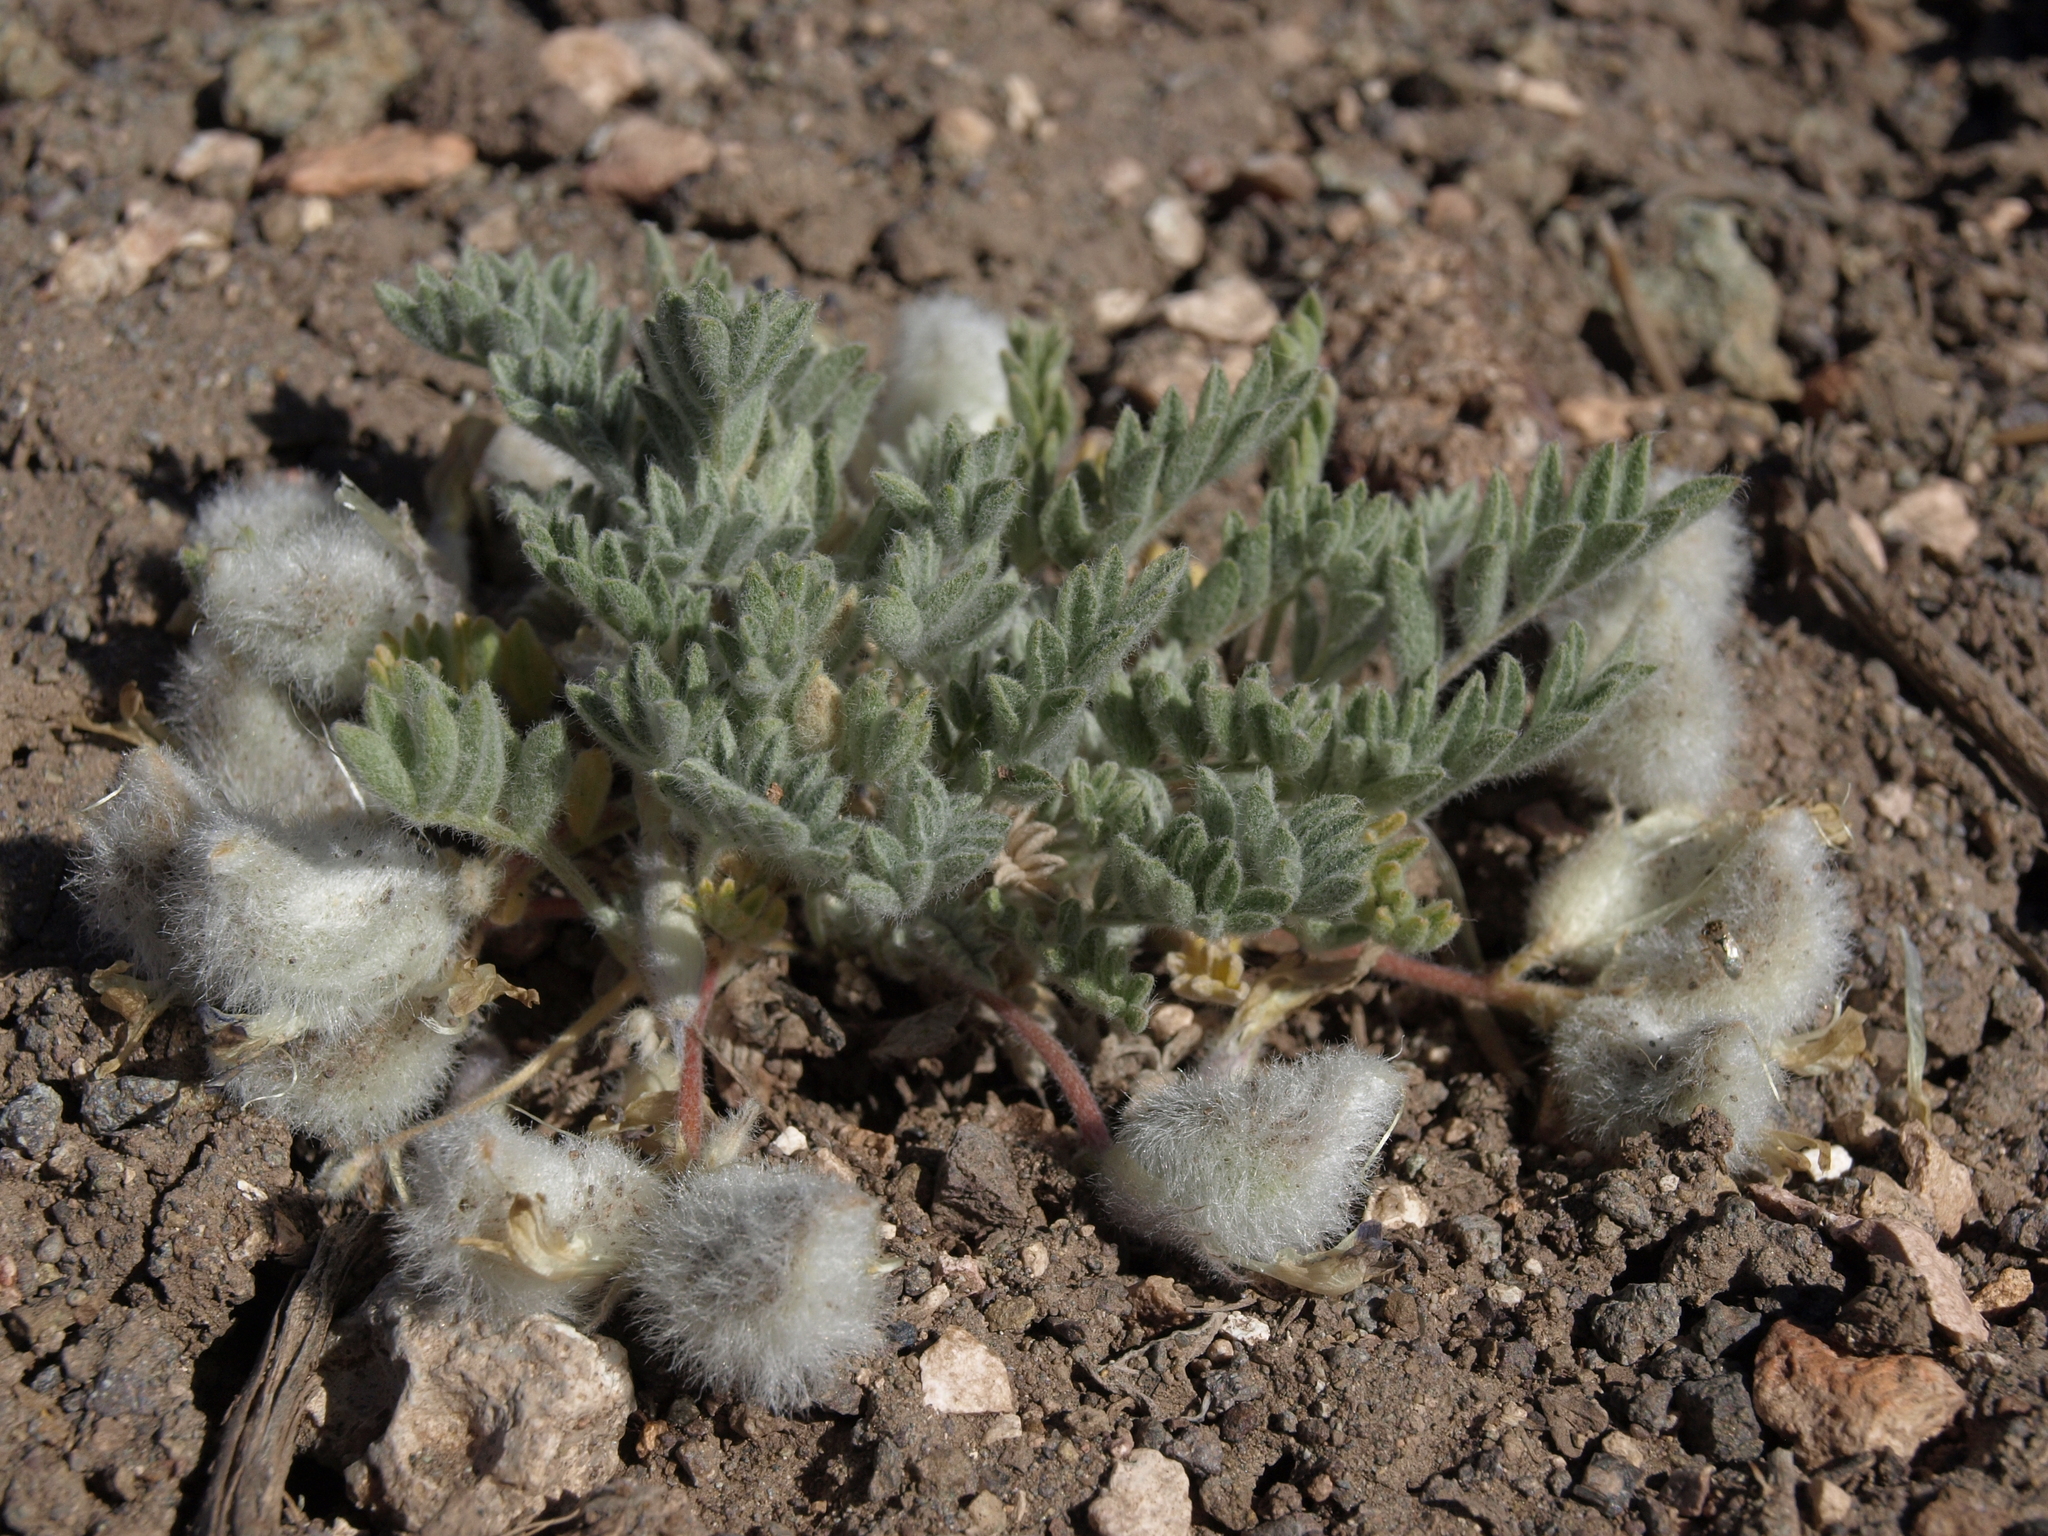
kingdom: Plantae
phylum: Tracheophyta
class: Magnoliopsida
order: Fabales
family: Fabaceae
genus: Astragalus
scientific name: Astragalus purshii
